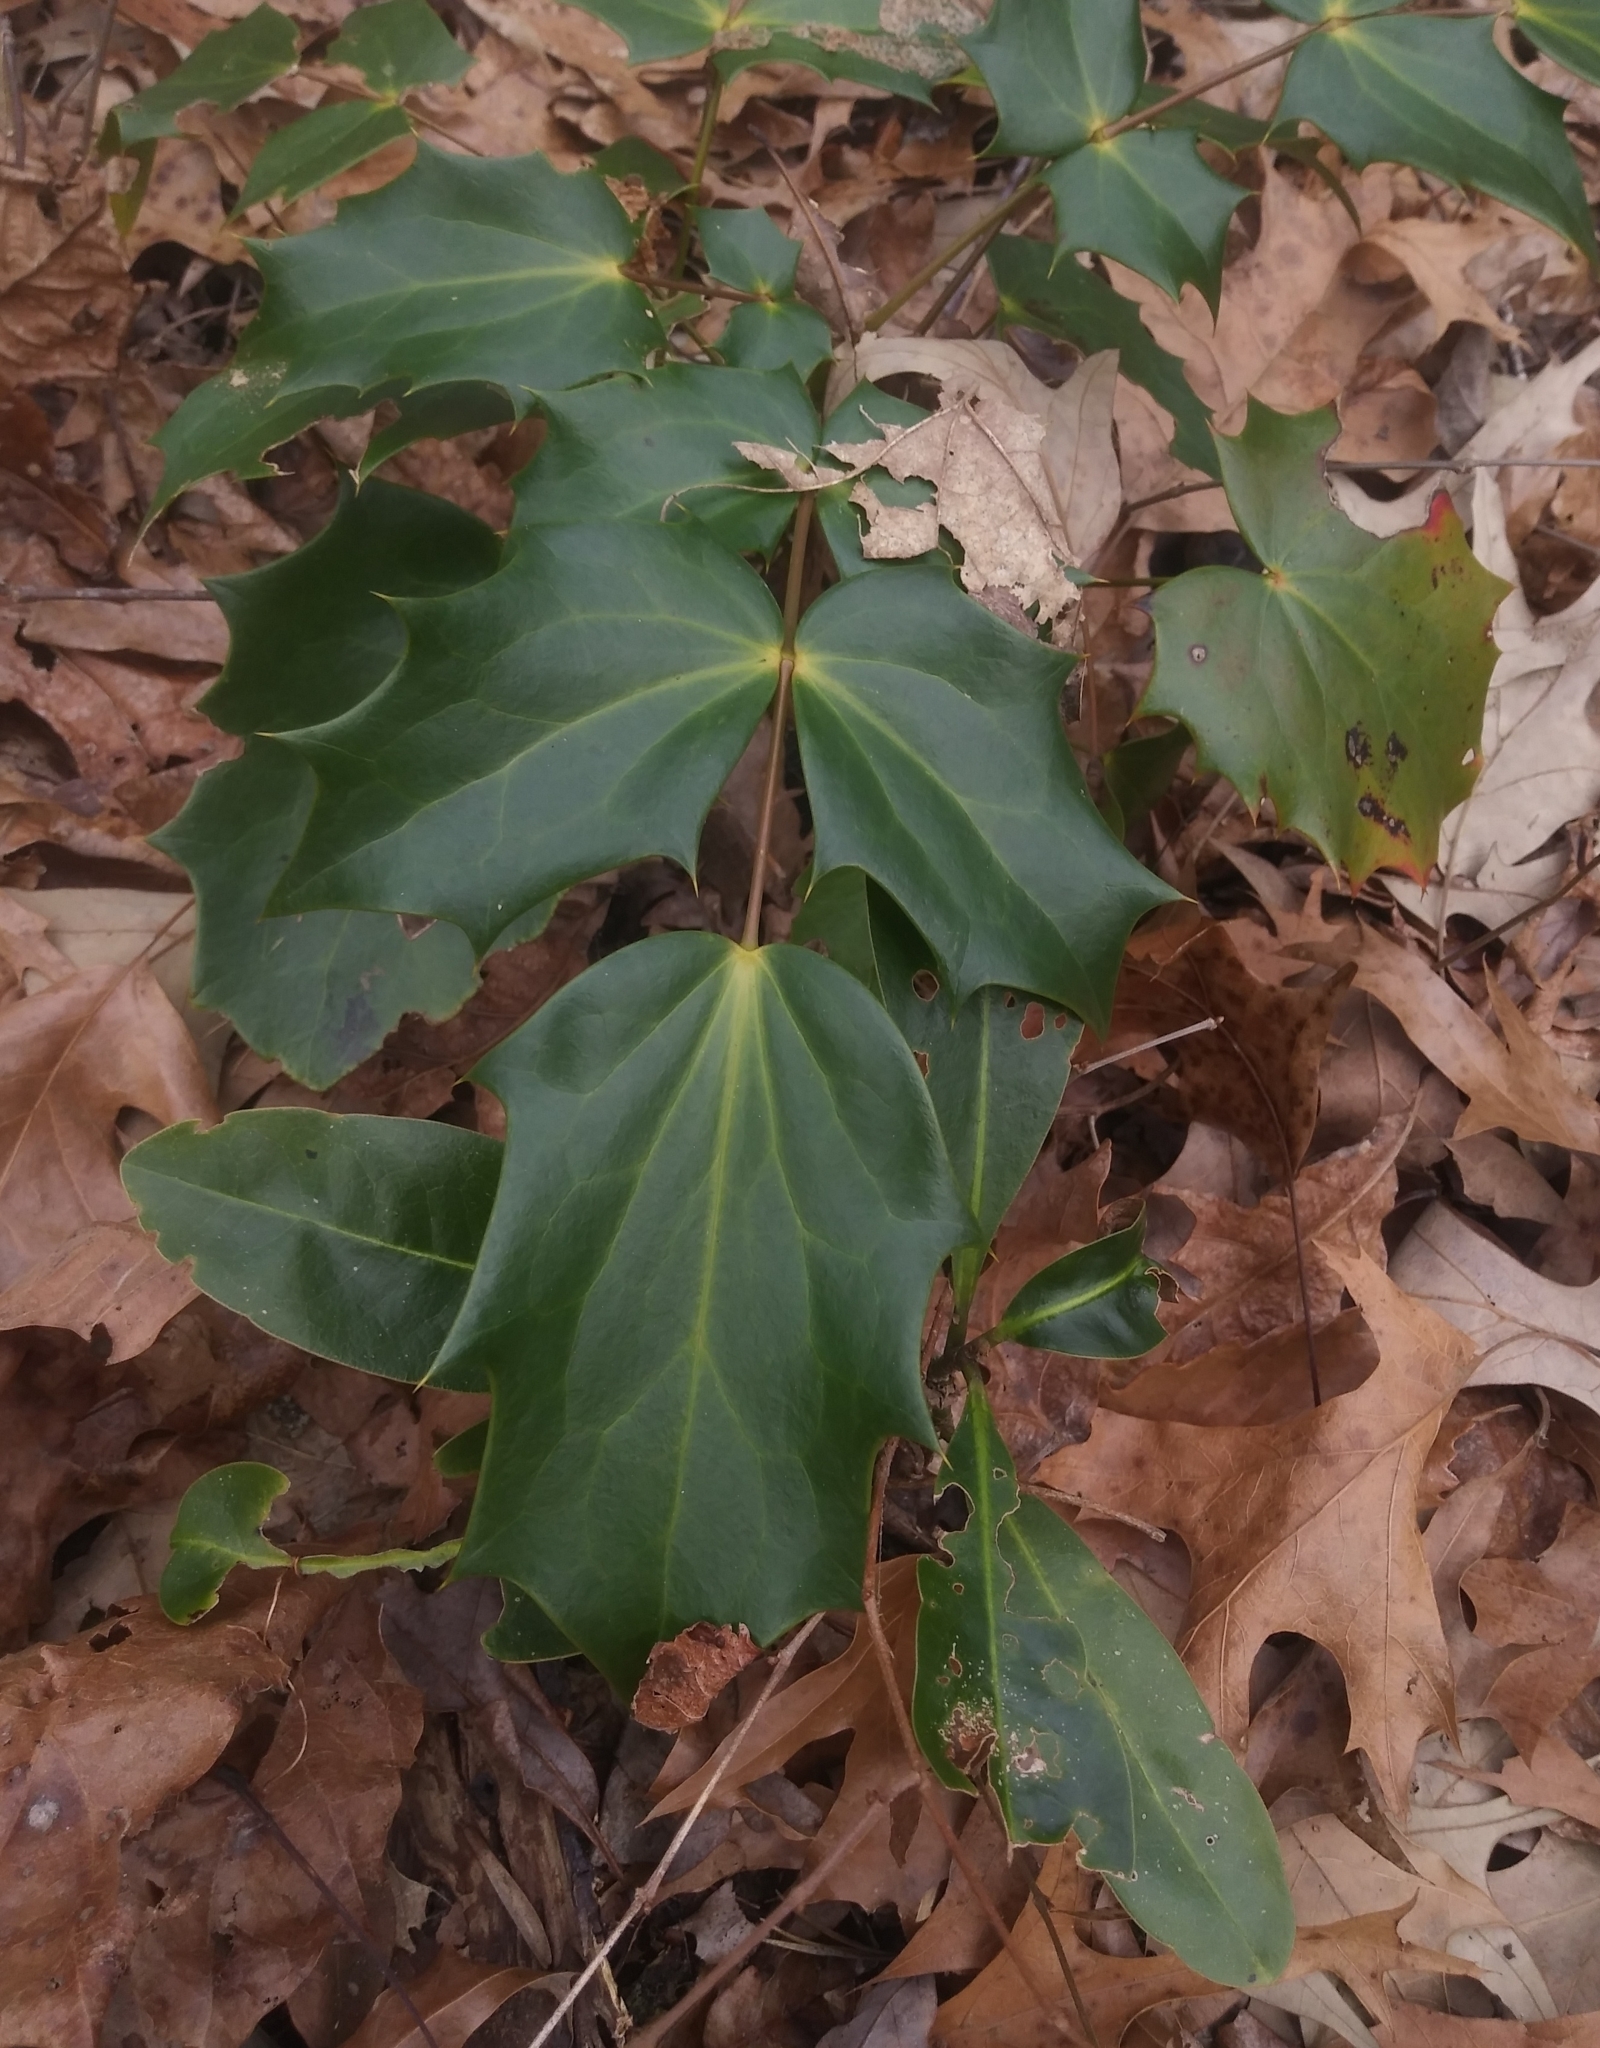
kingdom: Plantae
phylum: Tracheophyta
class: Magnoliopsida
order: Ranunculales
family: Berberidaceae
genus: Mahonia
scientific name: Mahonia bealei
